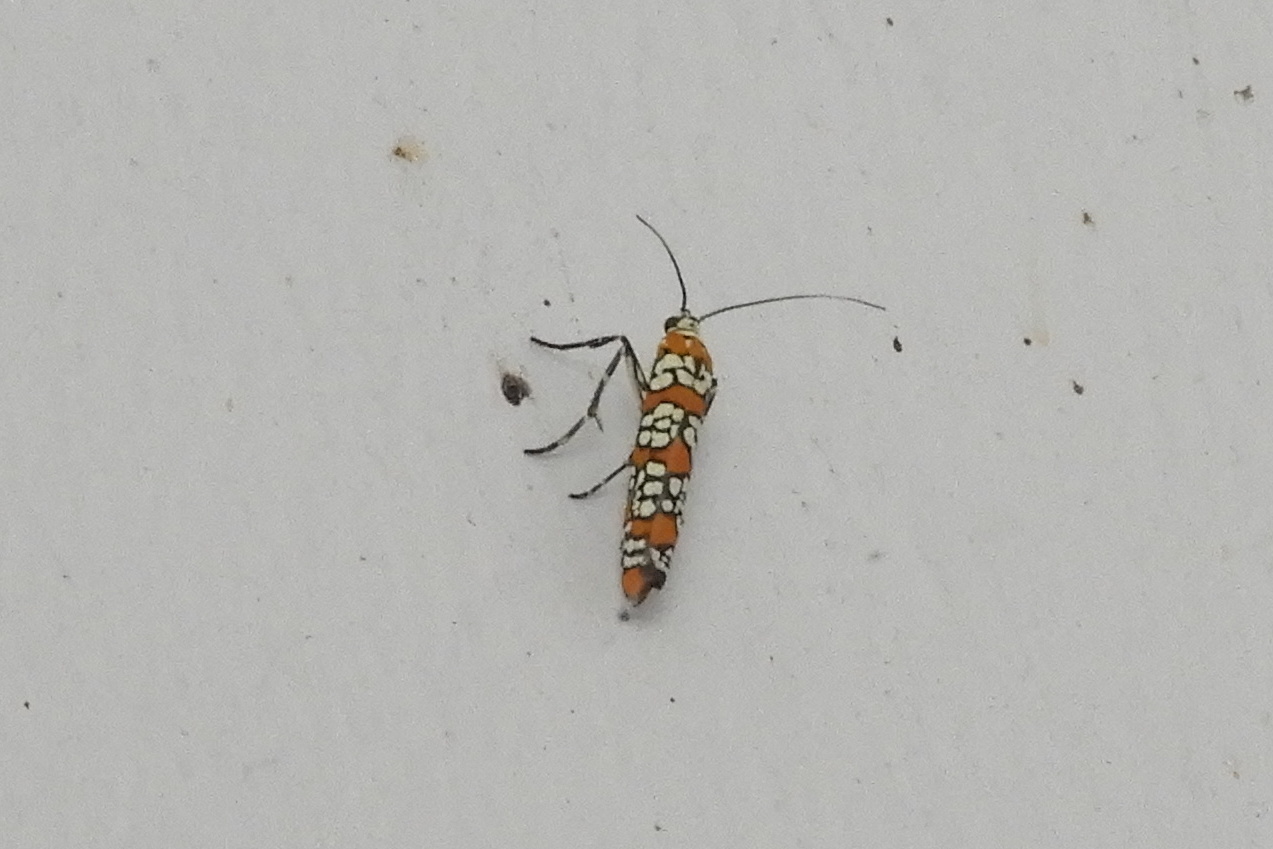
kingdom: Animalia
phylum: Arthropoda
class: Insecta
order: Lepidoptera
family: Attevidae
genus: Atteva
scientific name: Atteva punctella
